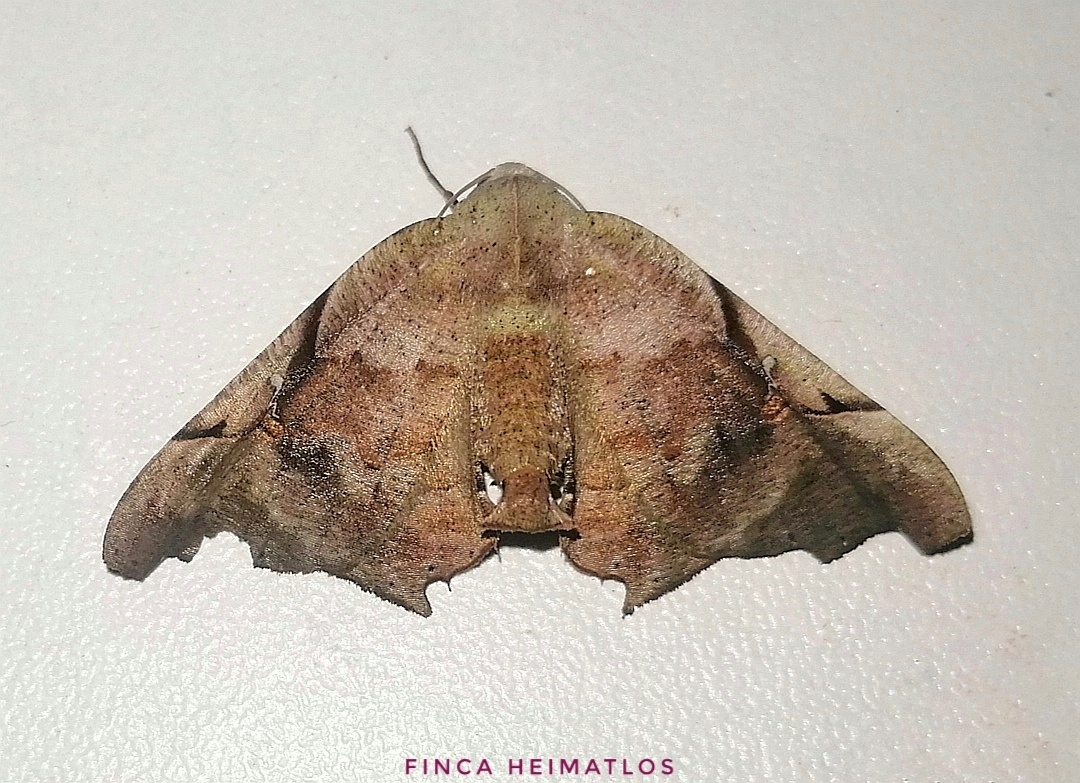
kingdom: Animalia
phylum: Arthropoda
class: Insecta
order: Lepidoptera
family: Geometridae
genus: Pero
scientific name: Pero incisa
